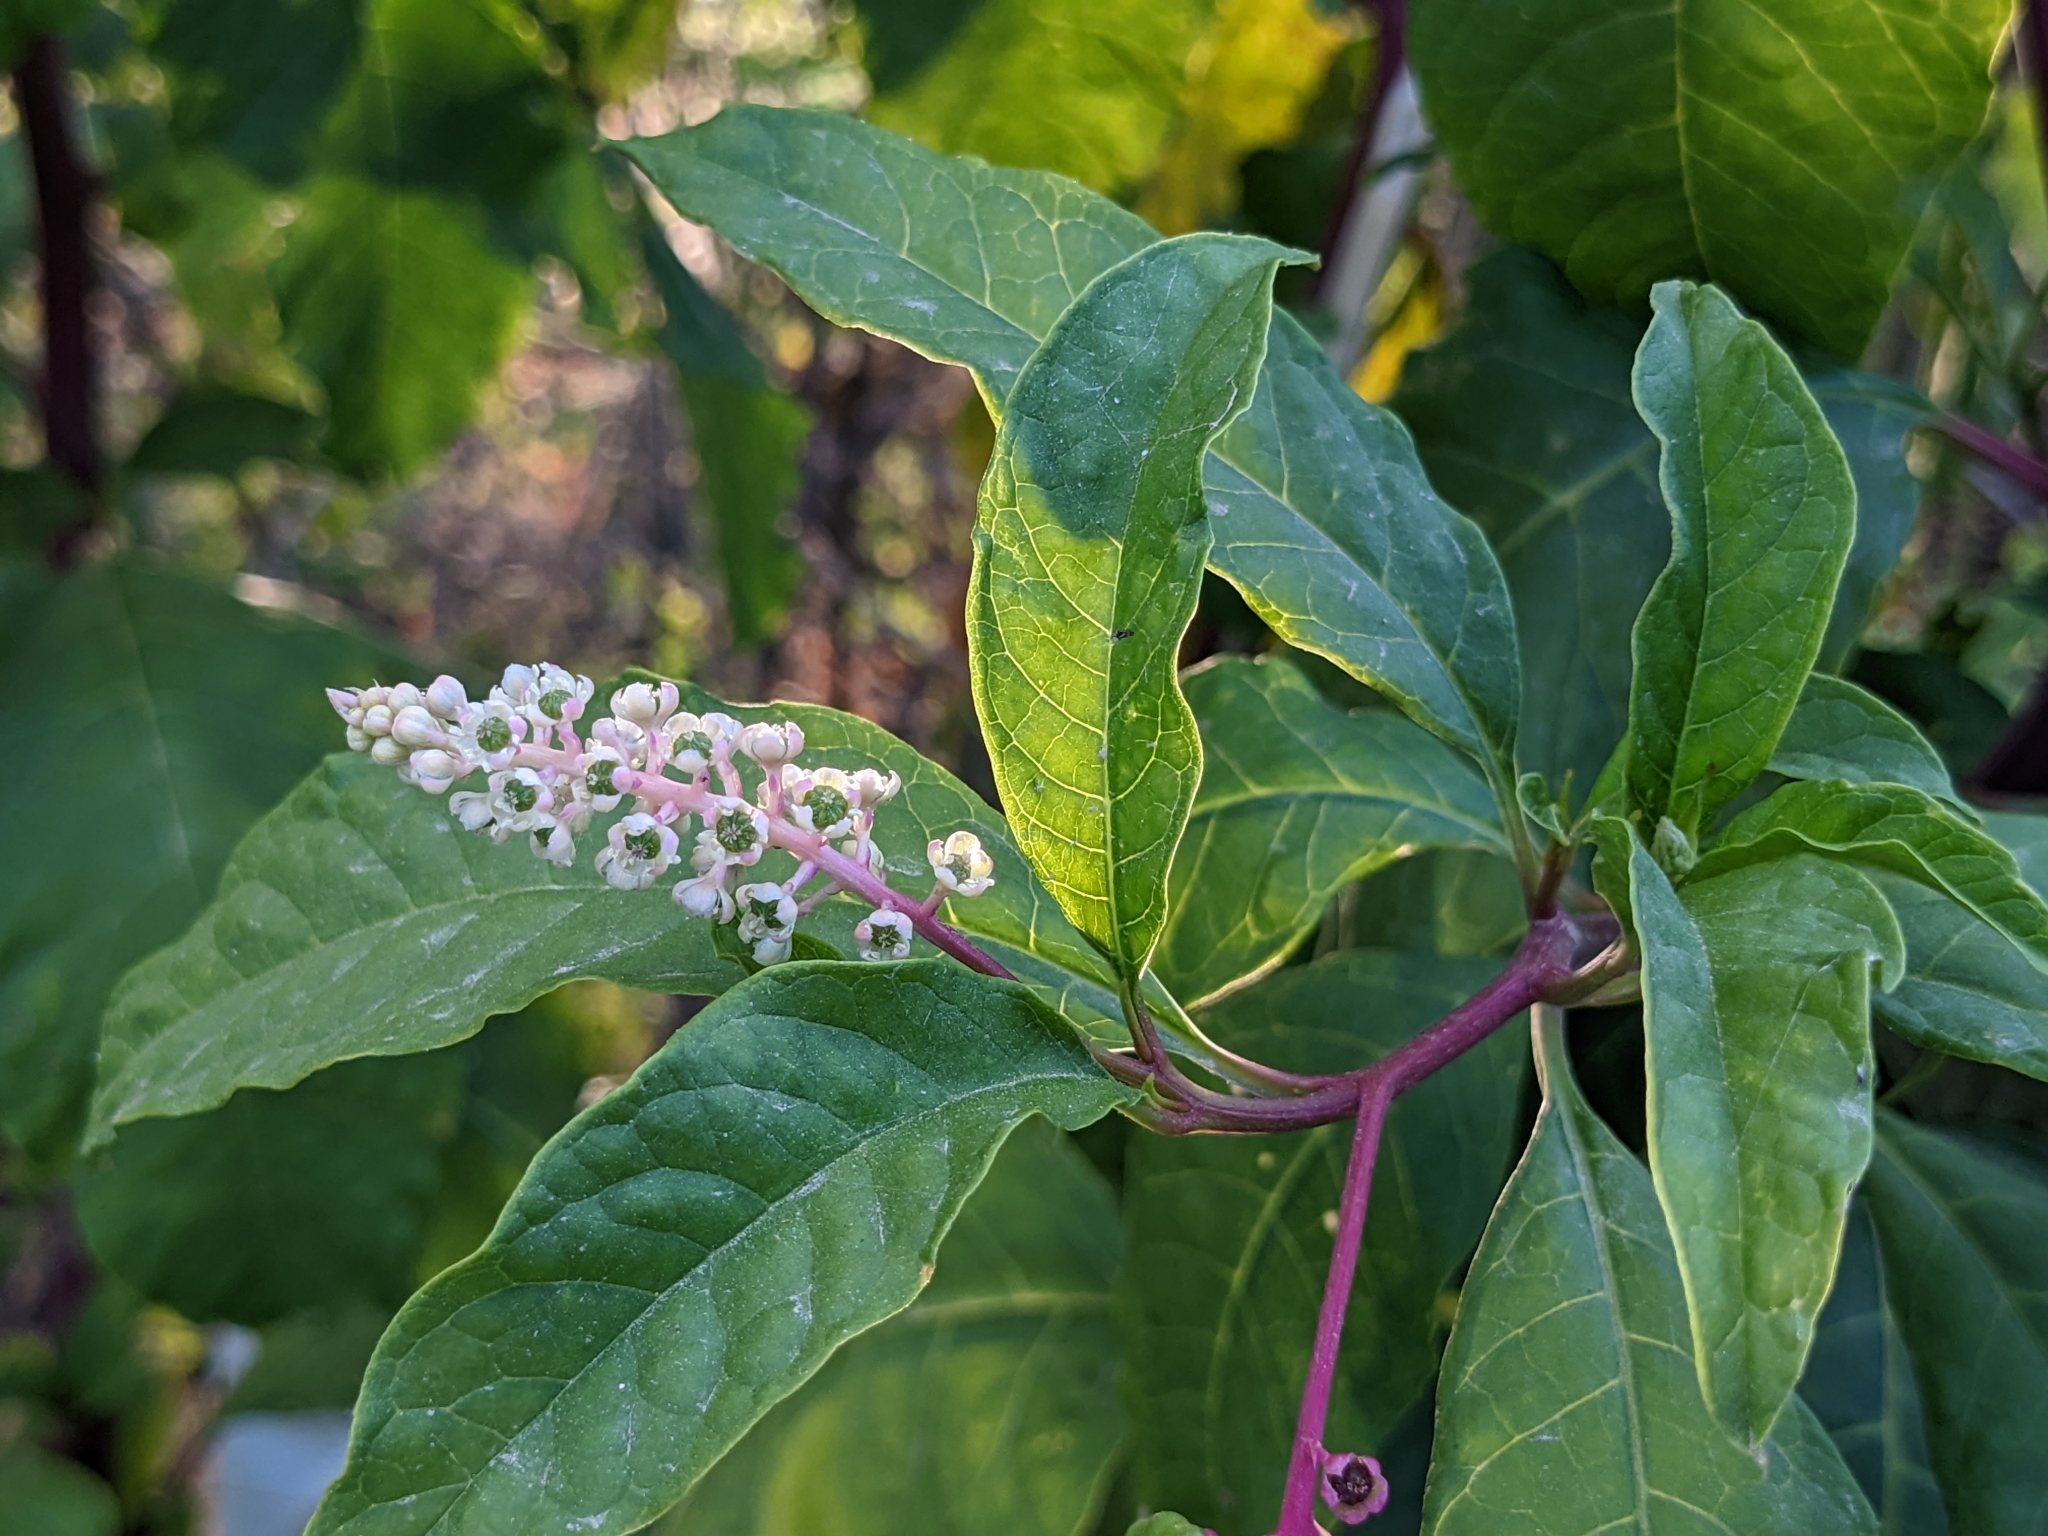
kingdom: Plantae
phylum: Tracheophyta
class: Magnoliopsida
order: Caryophyllales
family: Phytolaccaceae
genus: Phytolacca
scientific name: Phytolacca americana
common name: American pokeweed
